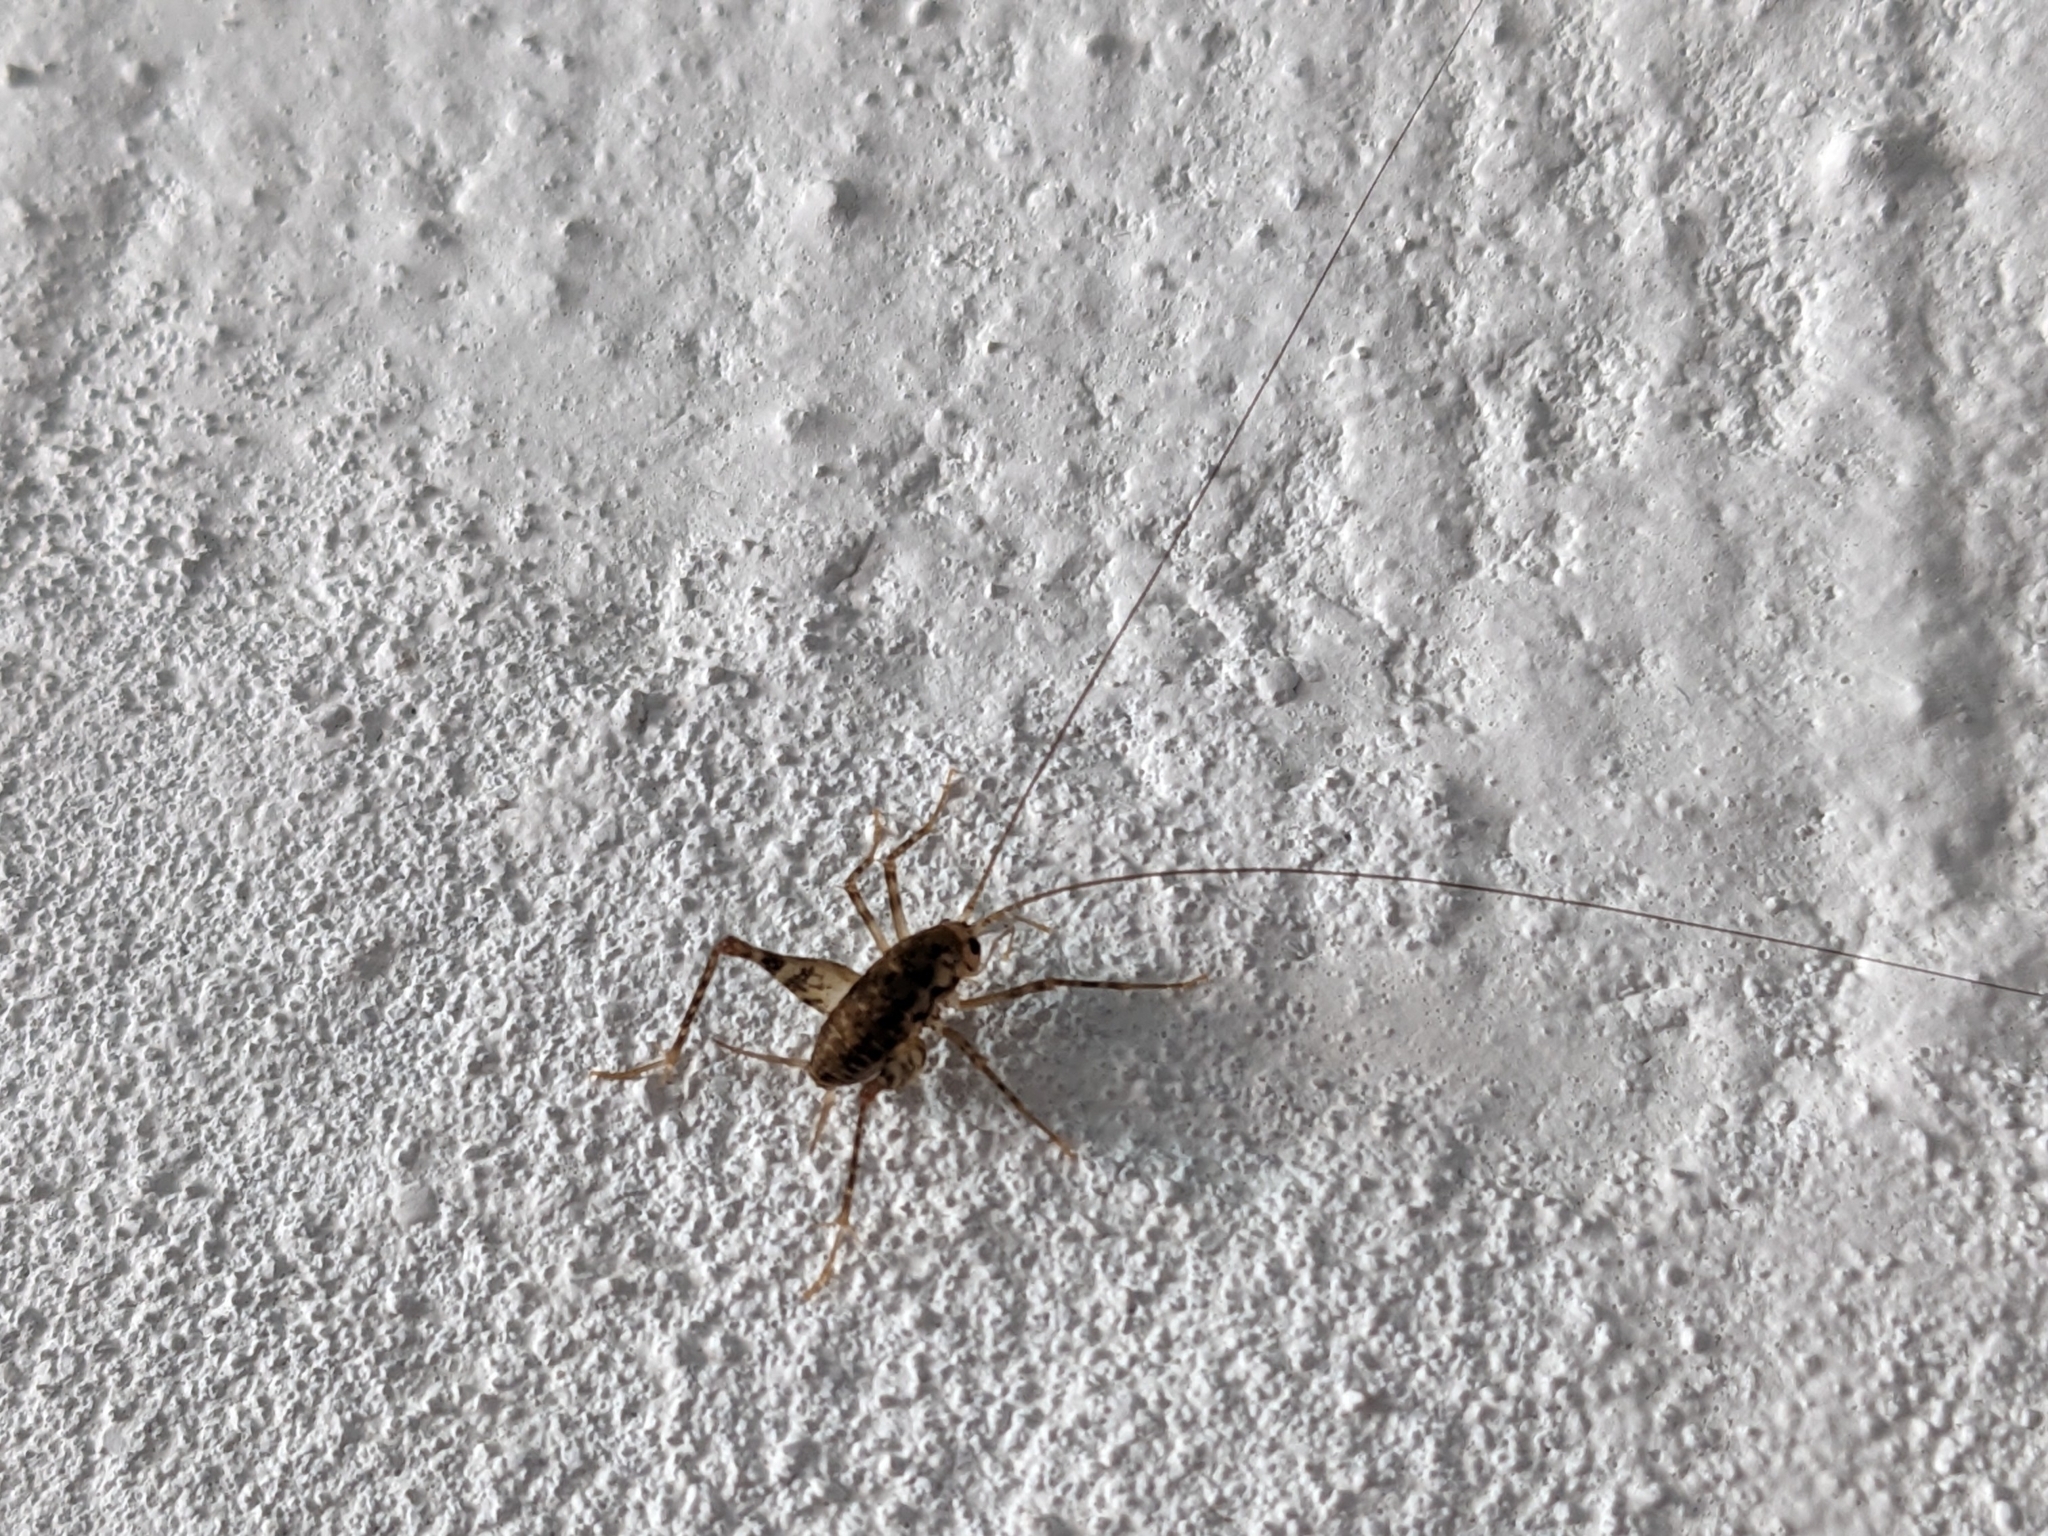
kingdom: Animalia
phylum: Arthropoda
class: Insecta
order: Orthoptera
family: Rhaphidophoridae
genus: Tachycines
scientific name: Tachycines asynamorus
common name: Greenhouse camel cricket
